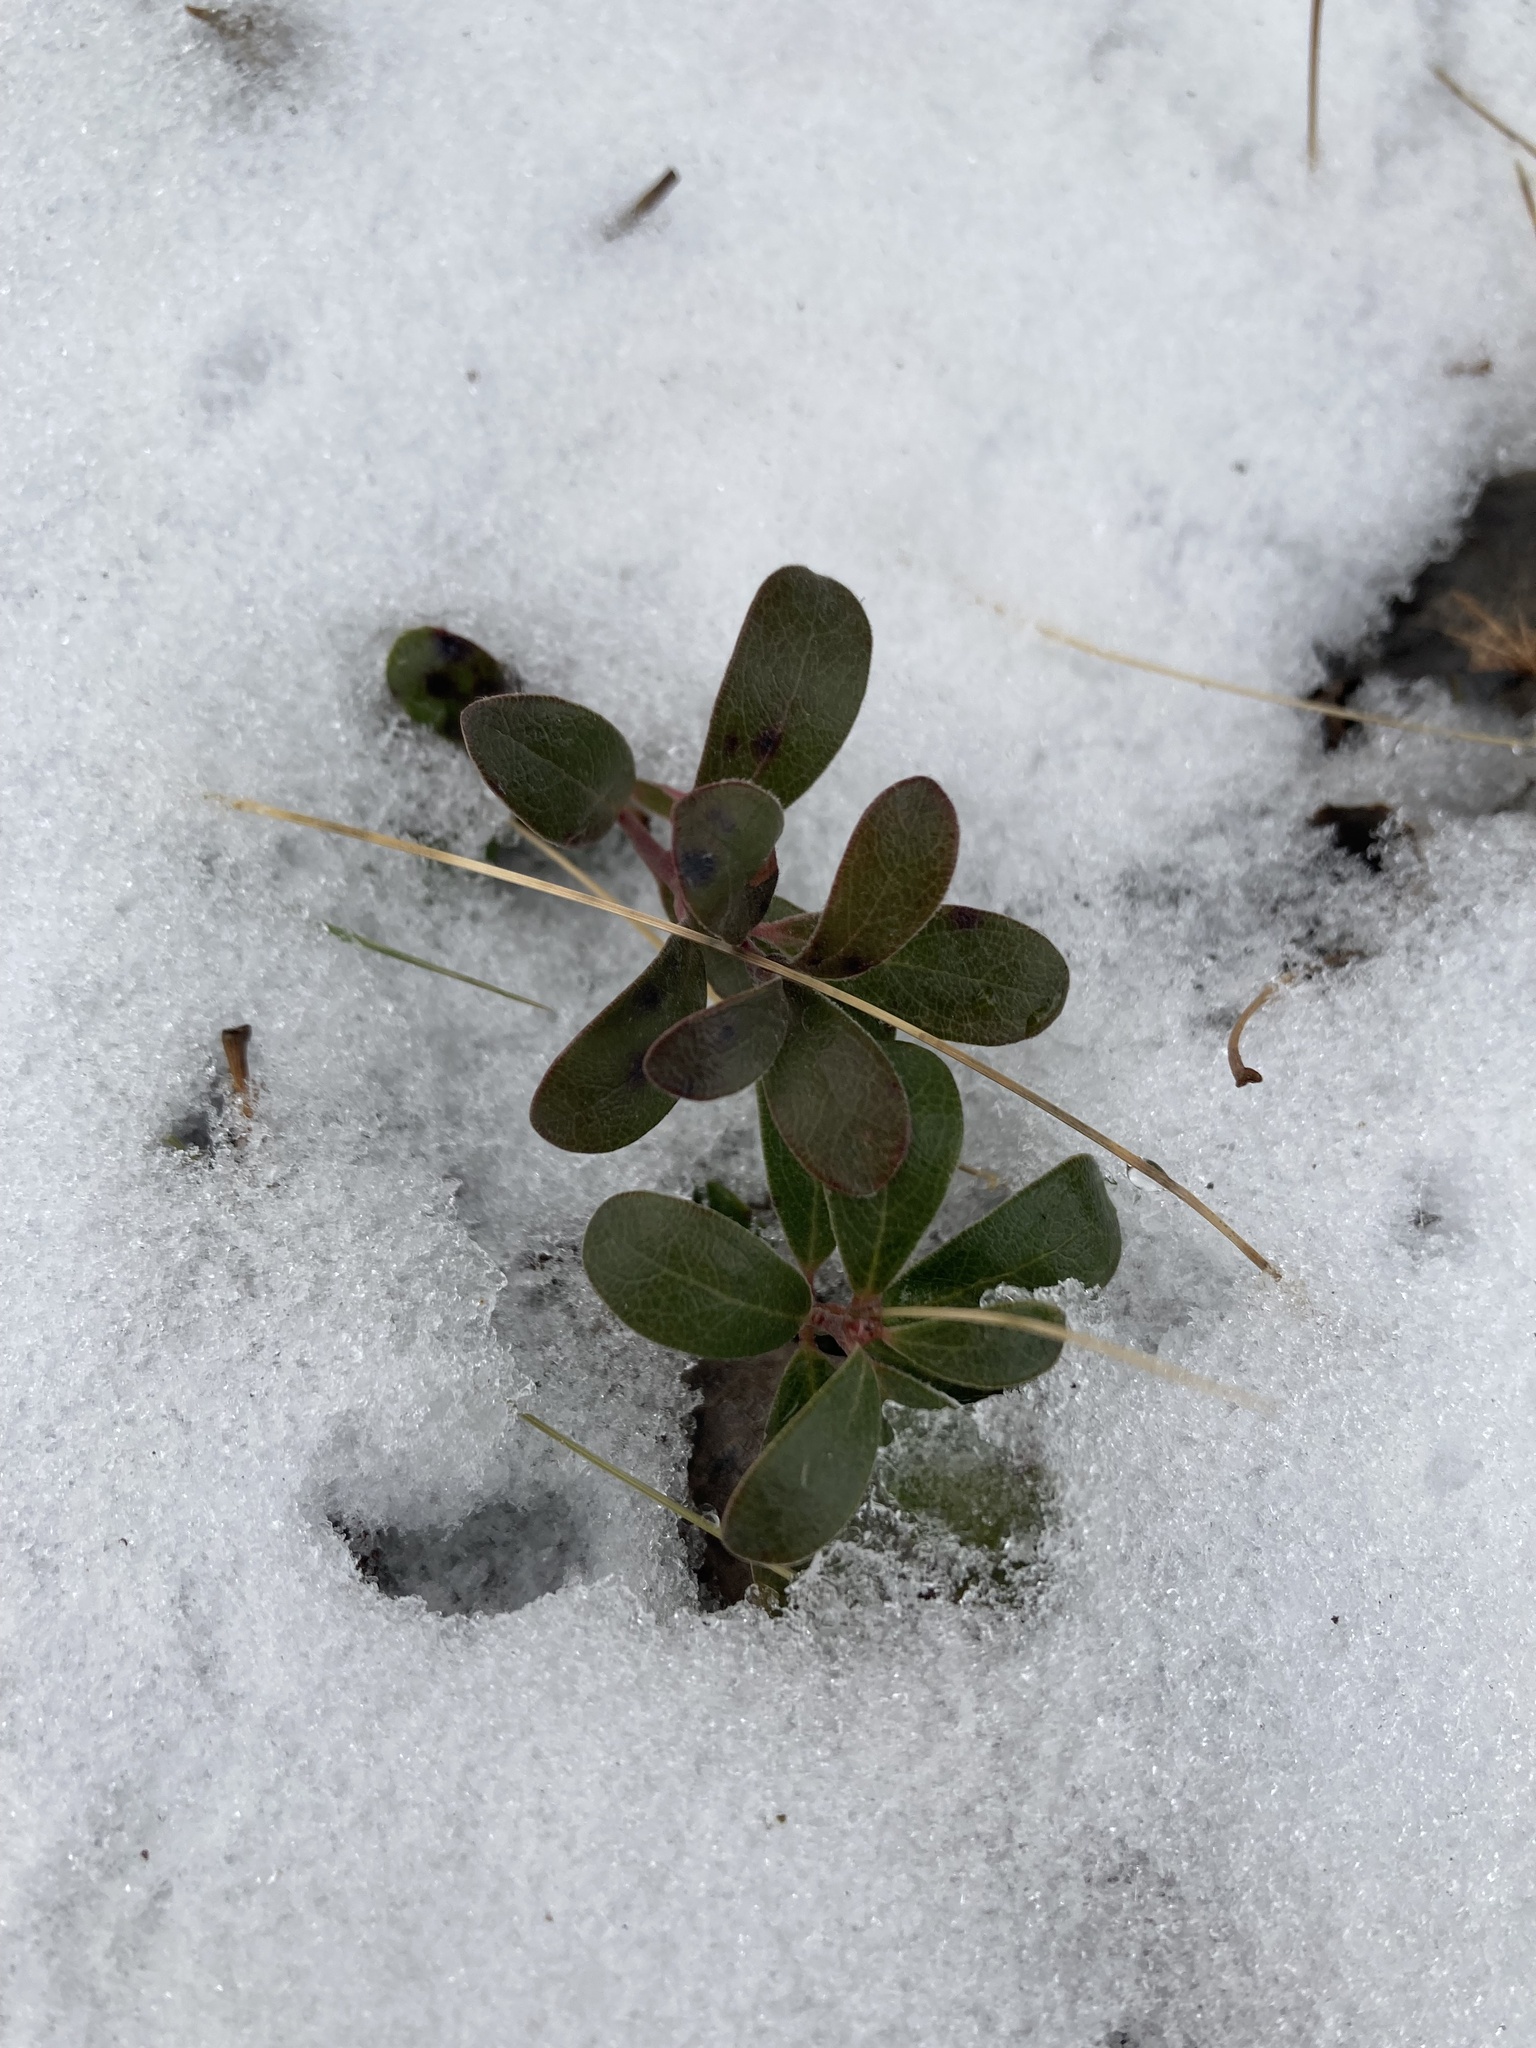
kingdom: Plantae
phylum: Tracheophyta
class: Magnoliopsida
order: Ericales
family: Ericaceae
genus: Arctostaphylos
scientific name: Arctostaphylos uva-ursi
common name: Bearberry
